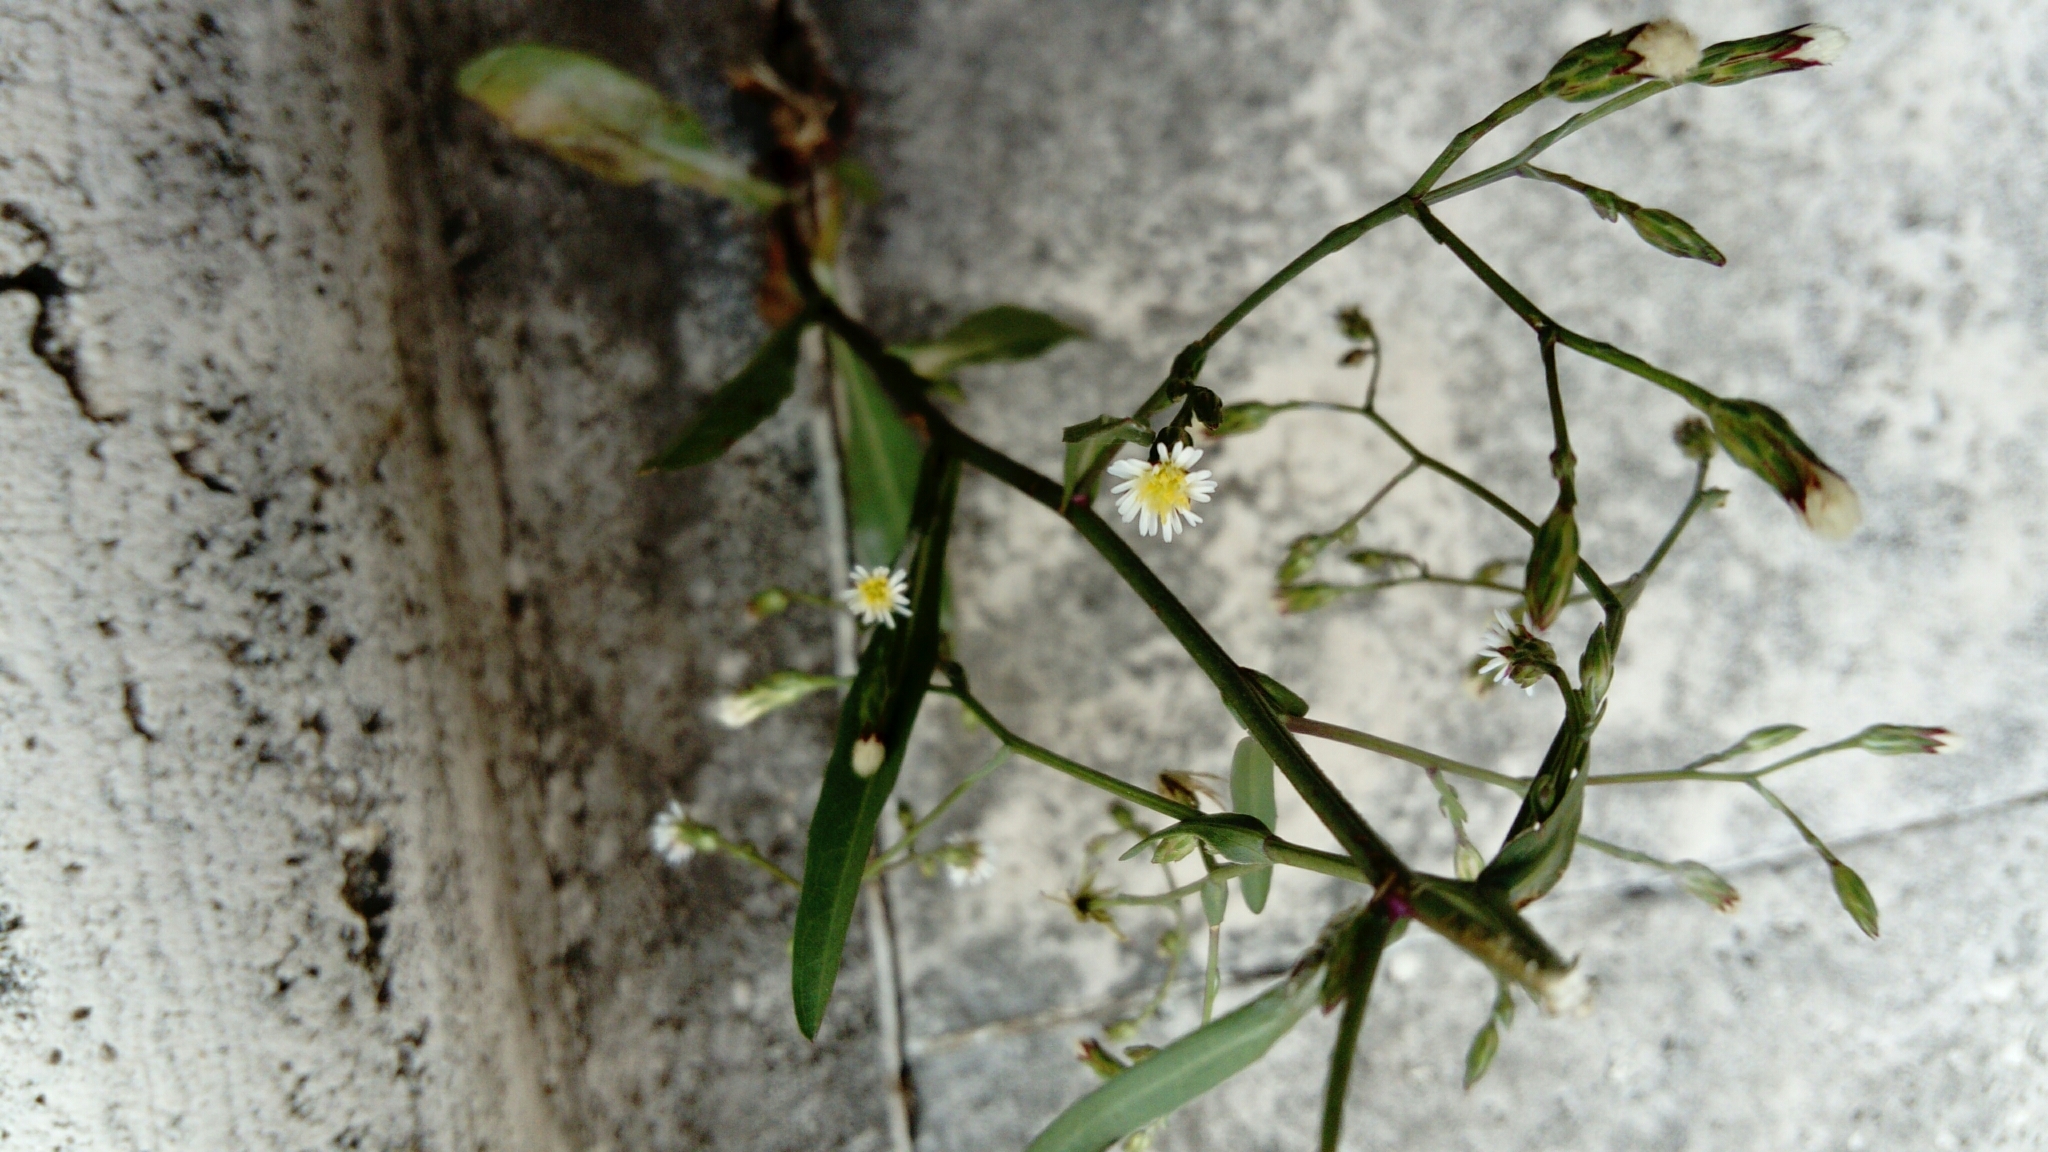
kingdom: Plantae
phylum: Tracheophyta
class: Magnoliopsida
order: Asterales
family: Asteraceae
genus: Symphyotrichum
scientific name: Symphyotrichum squamatum
